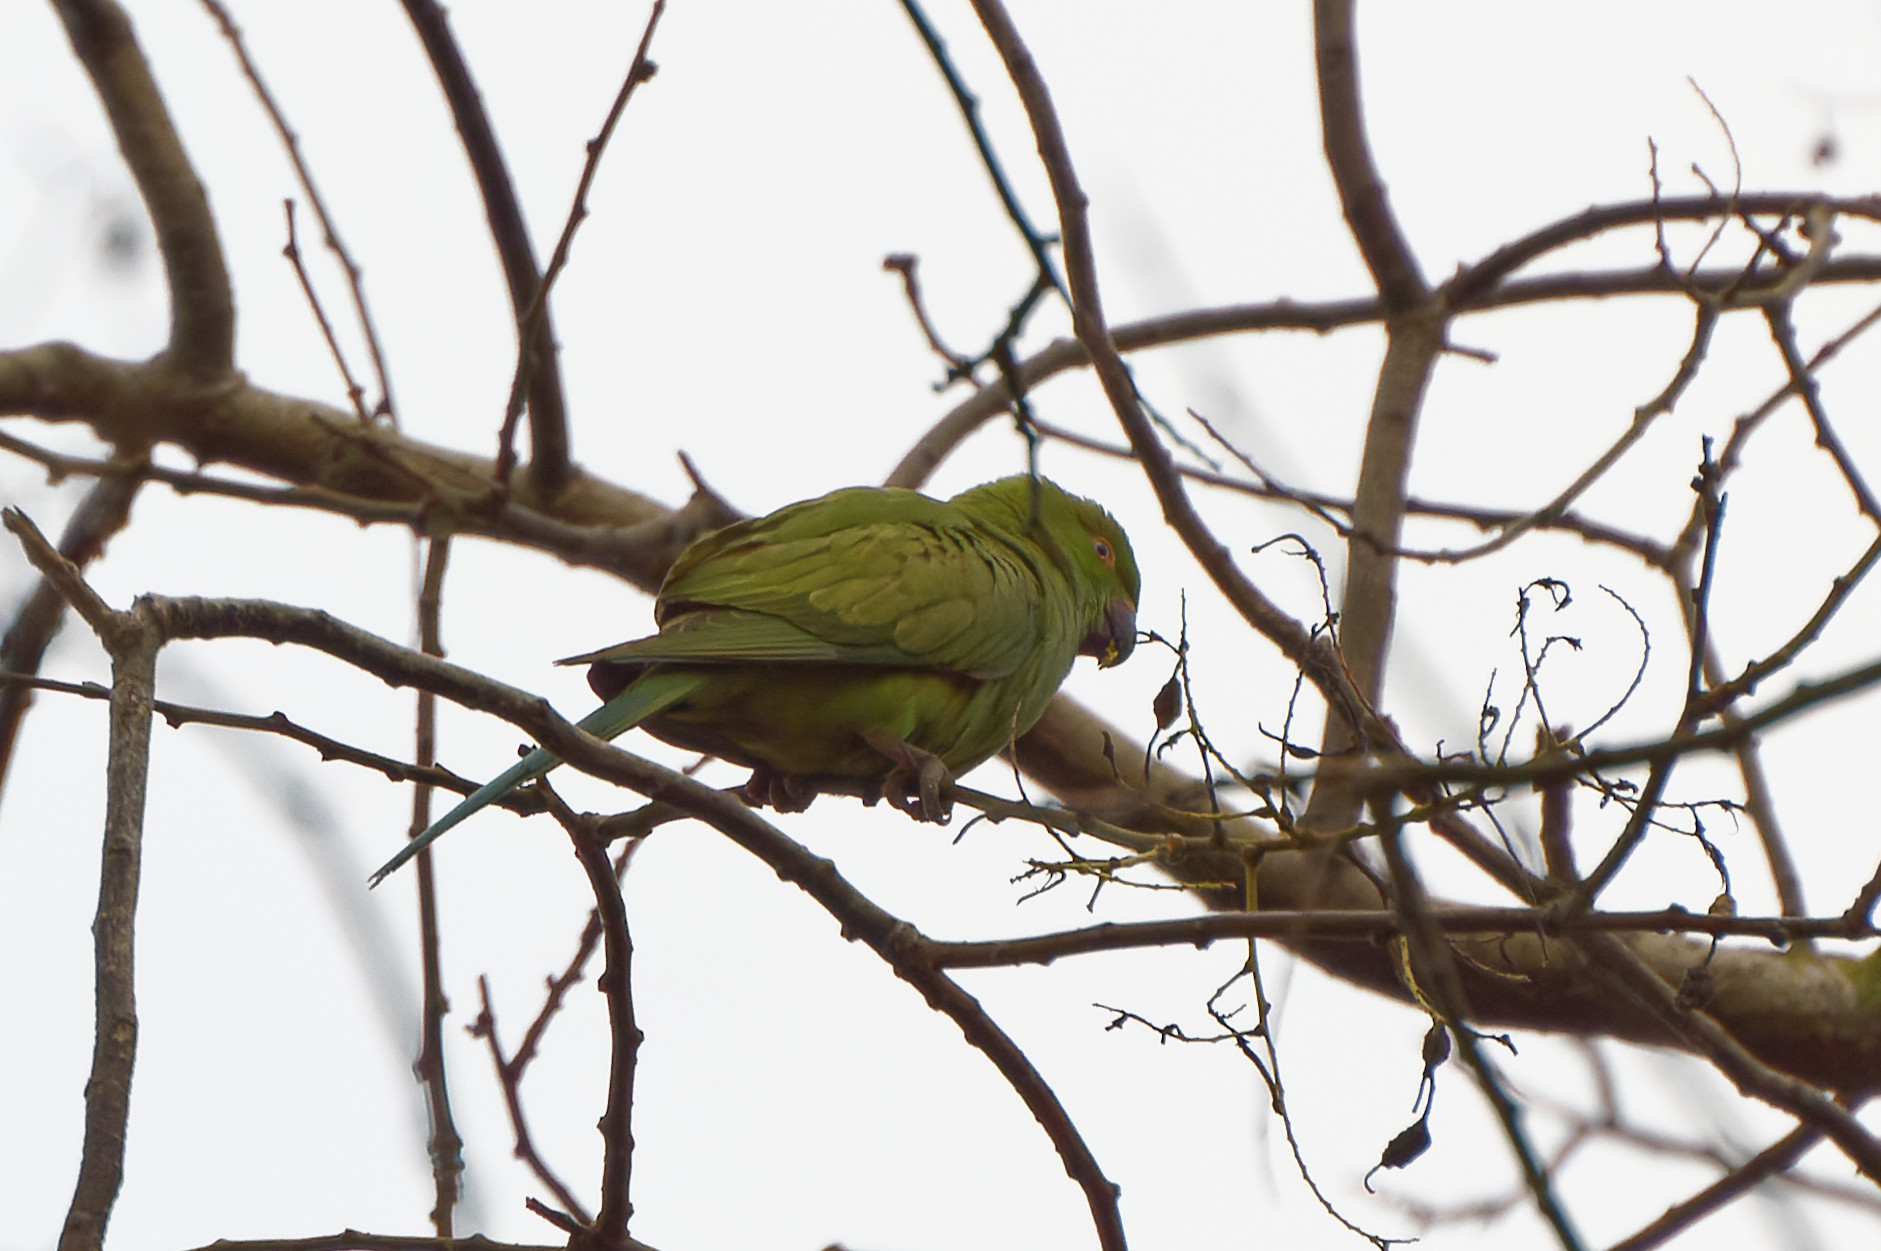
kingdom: Animalia
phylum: Chordata
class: Aves
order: Psittaciformes
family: Psittacidae
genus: Psittacula
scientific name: Psittacula krameri
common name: Rose-ringed parakeet
